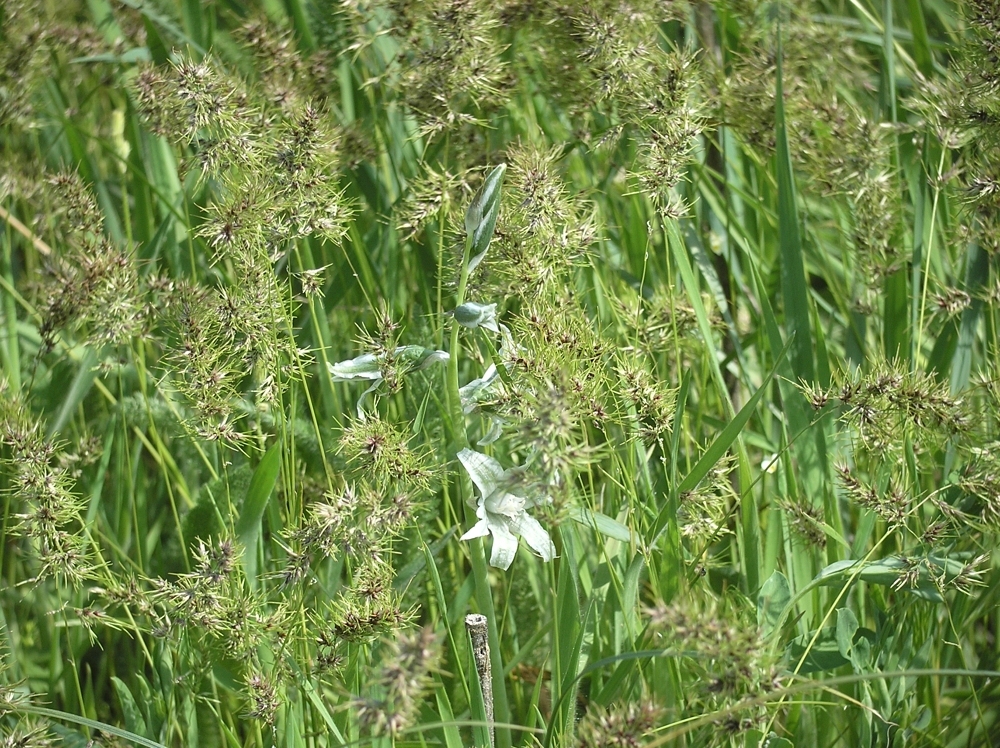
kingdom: Plantae
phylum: Tracheophyta
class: Liliopsida
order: Asparagales
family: Asparagaceae
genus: Ornithogalum
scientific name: Ornithogalum boucheanum
